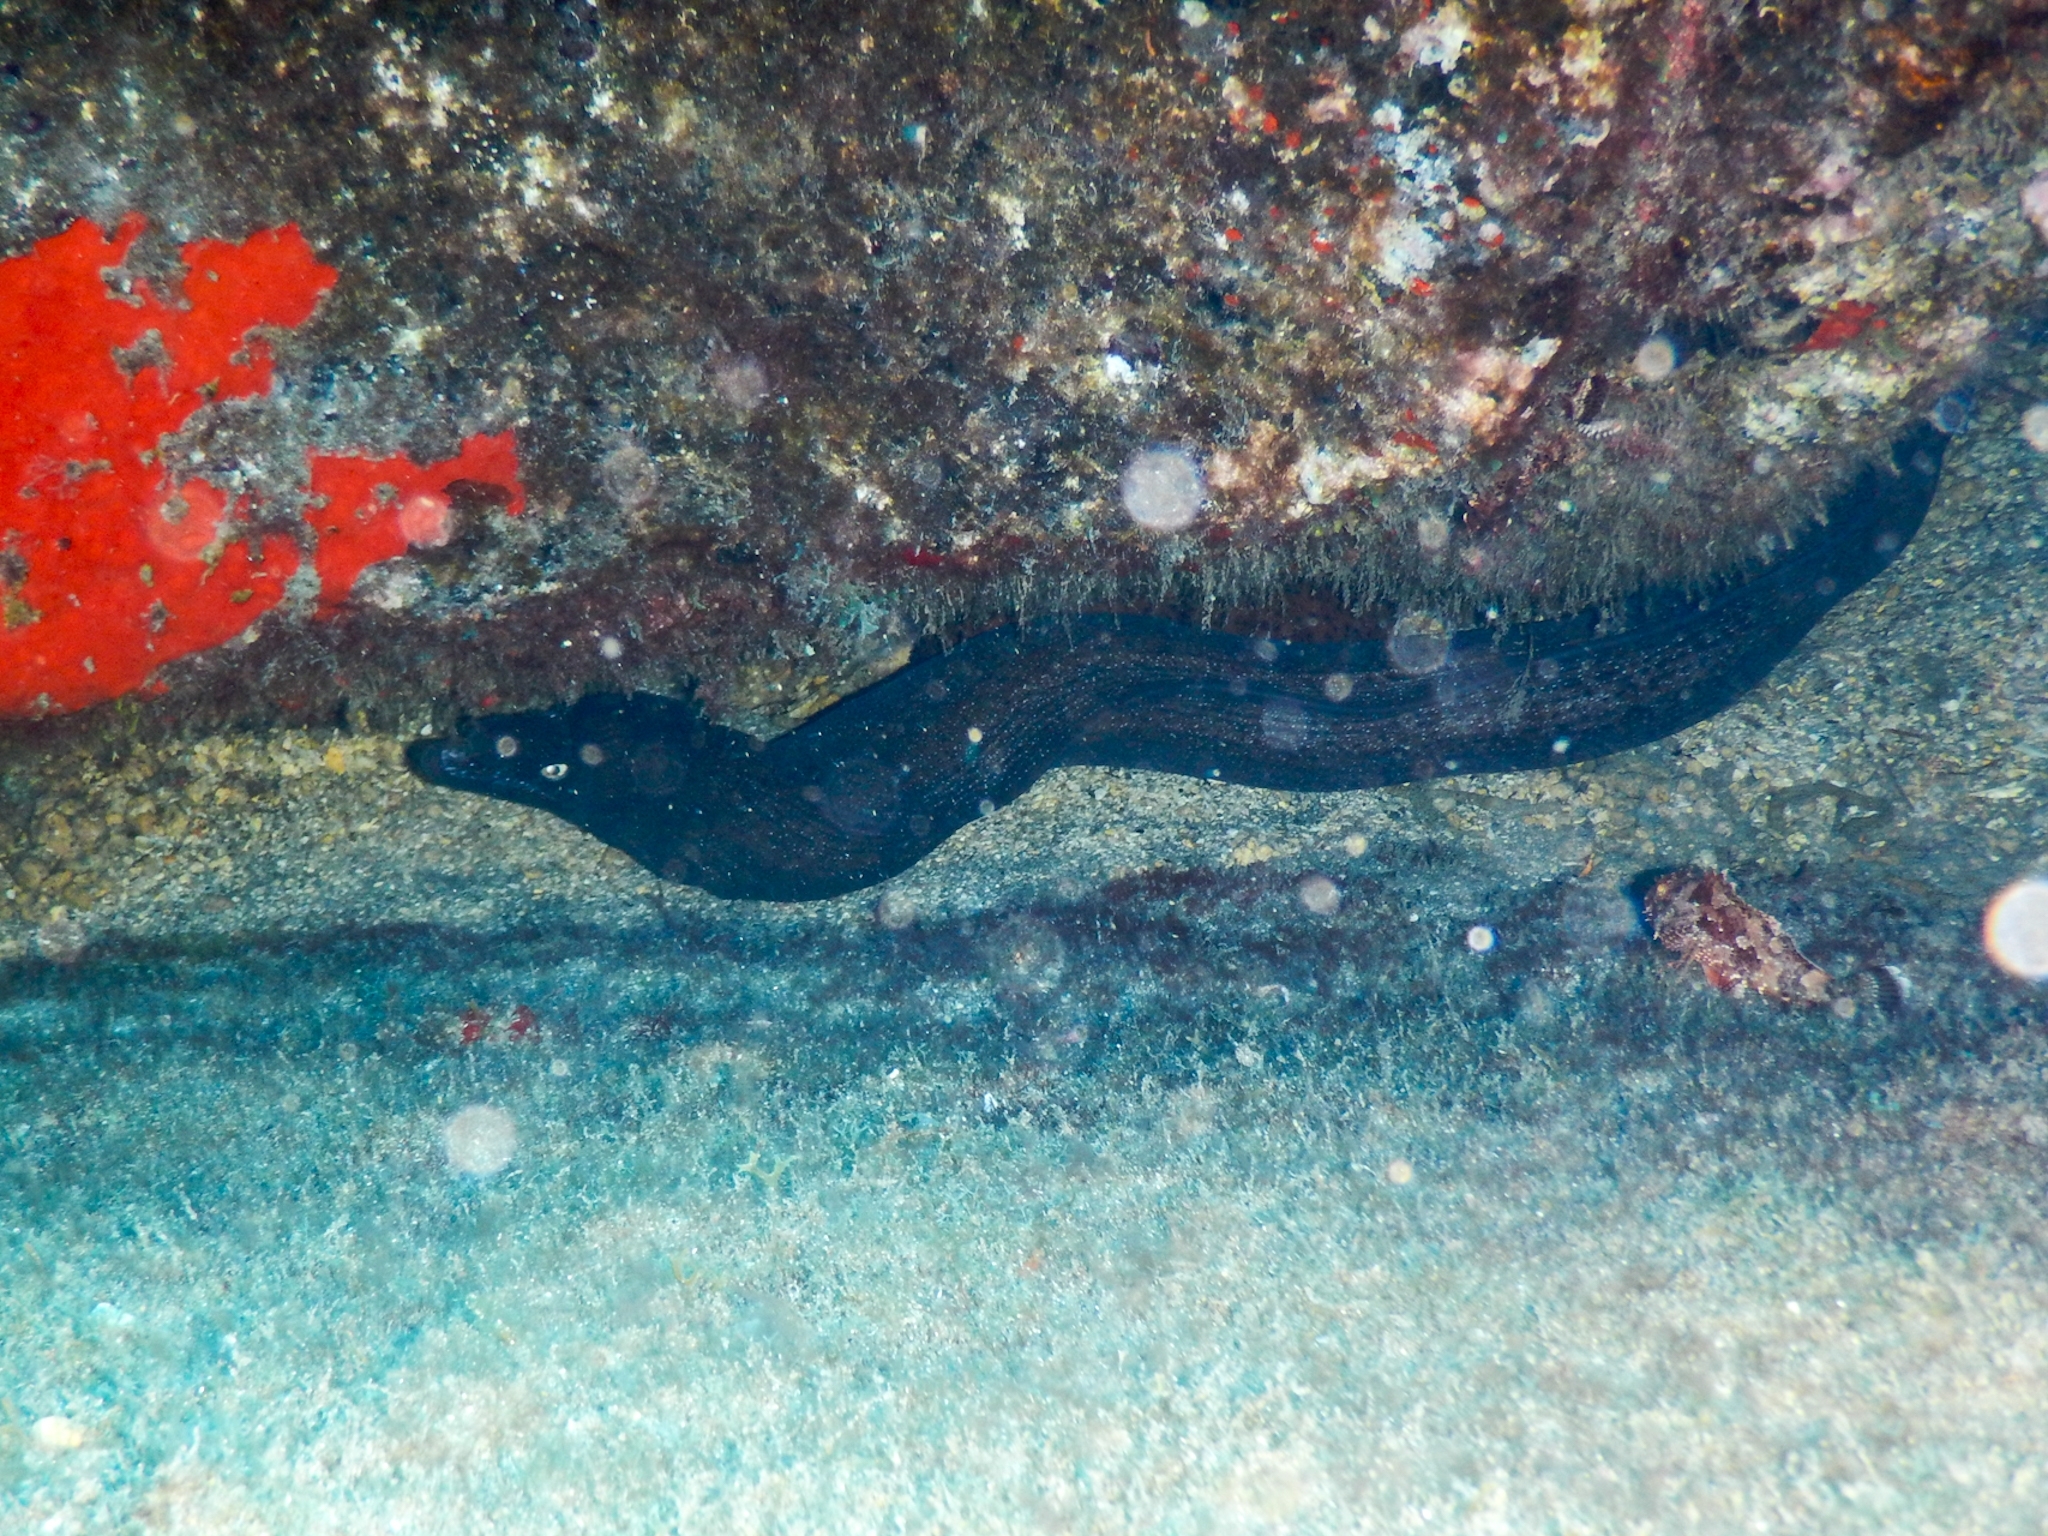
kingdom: Animalia
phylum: Chordata
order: Anguilliformes
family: Muraenidae
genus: Muraena
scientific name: Muraena augusti
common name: Mediterranean moray
